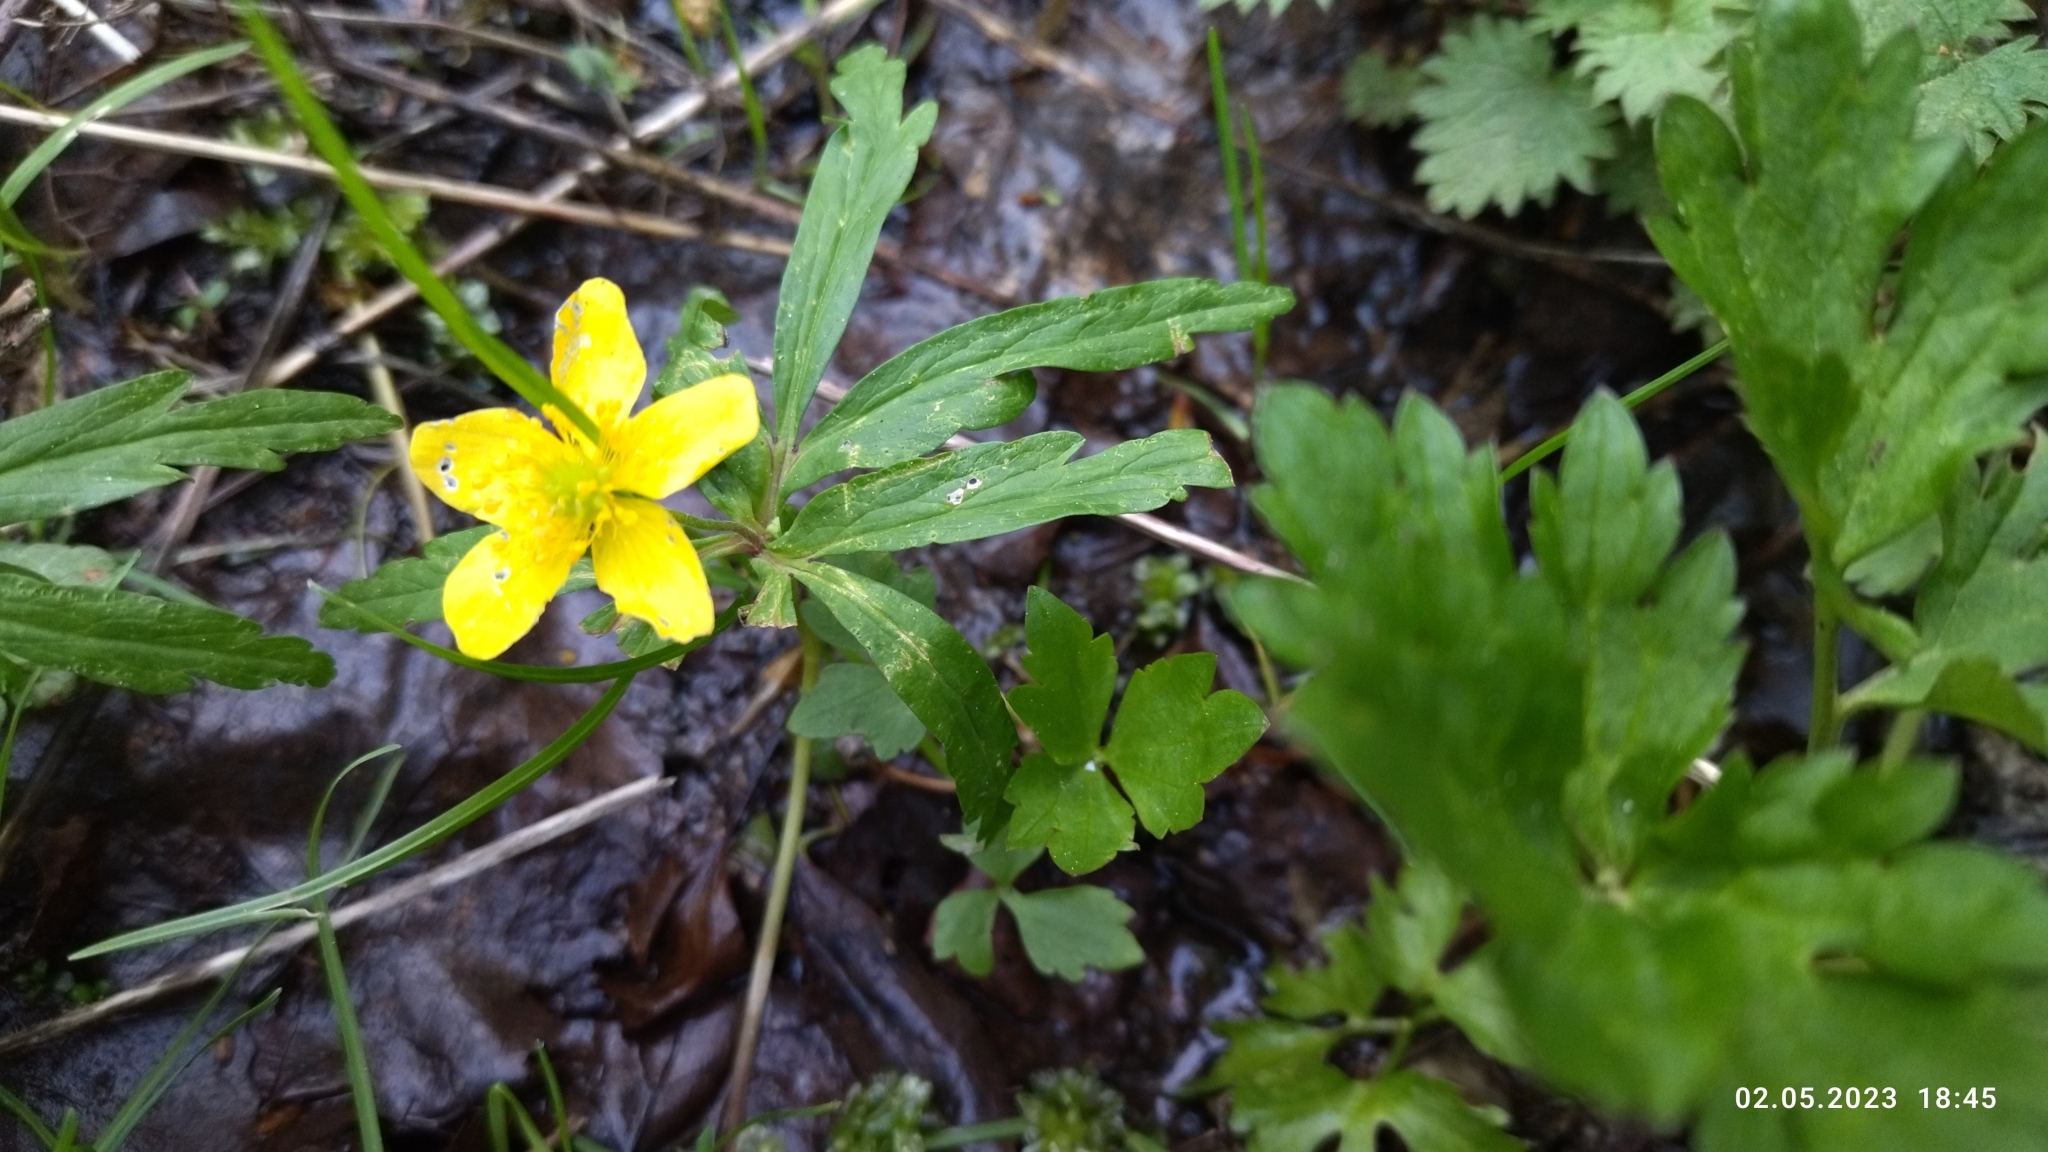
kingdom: Plantae
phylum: Tracheophyta
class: Magnoliopsida
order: Ranunculales
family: Ranunculaceae
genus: Anemone
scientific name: Anemone ranunculoides
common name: Yellow anemone
